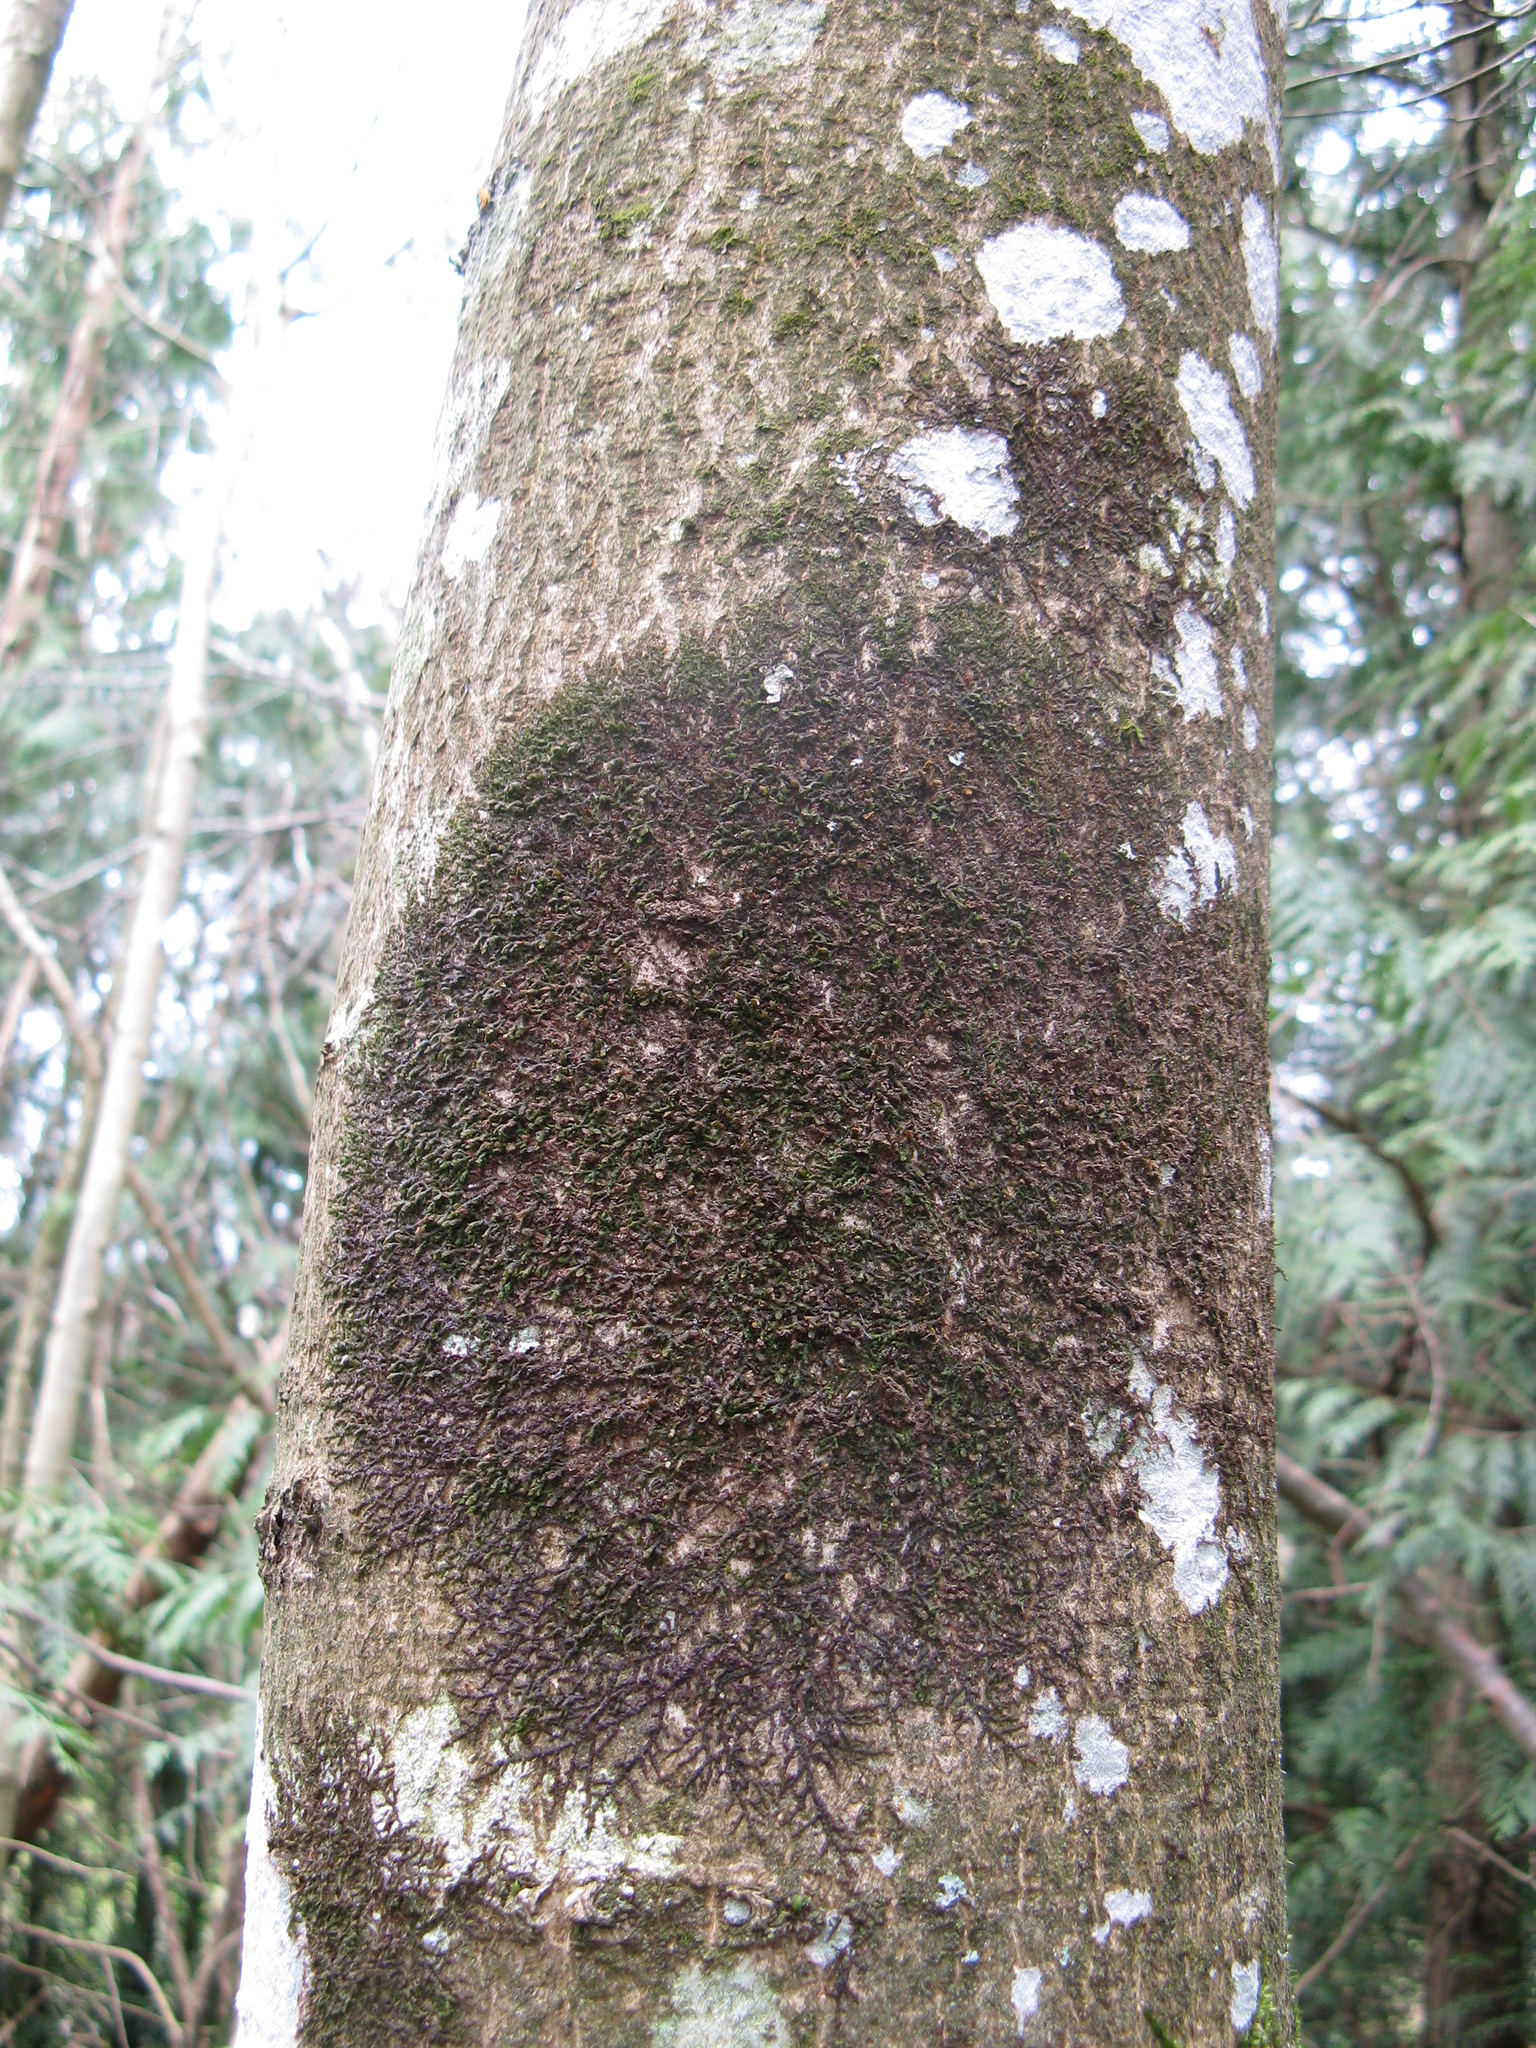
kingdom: Plantae
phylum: Marchantiophyta
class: Jungermanniopsida
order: Porellales
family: Frullaniaceae
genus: Frullania
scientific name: Frullania dilatata
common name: Dilated scalewort
